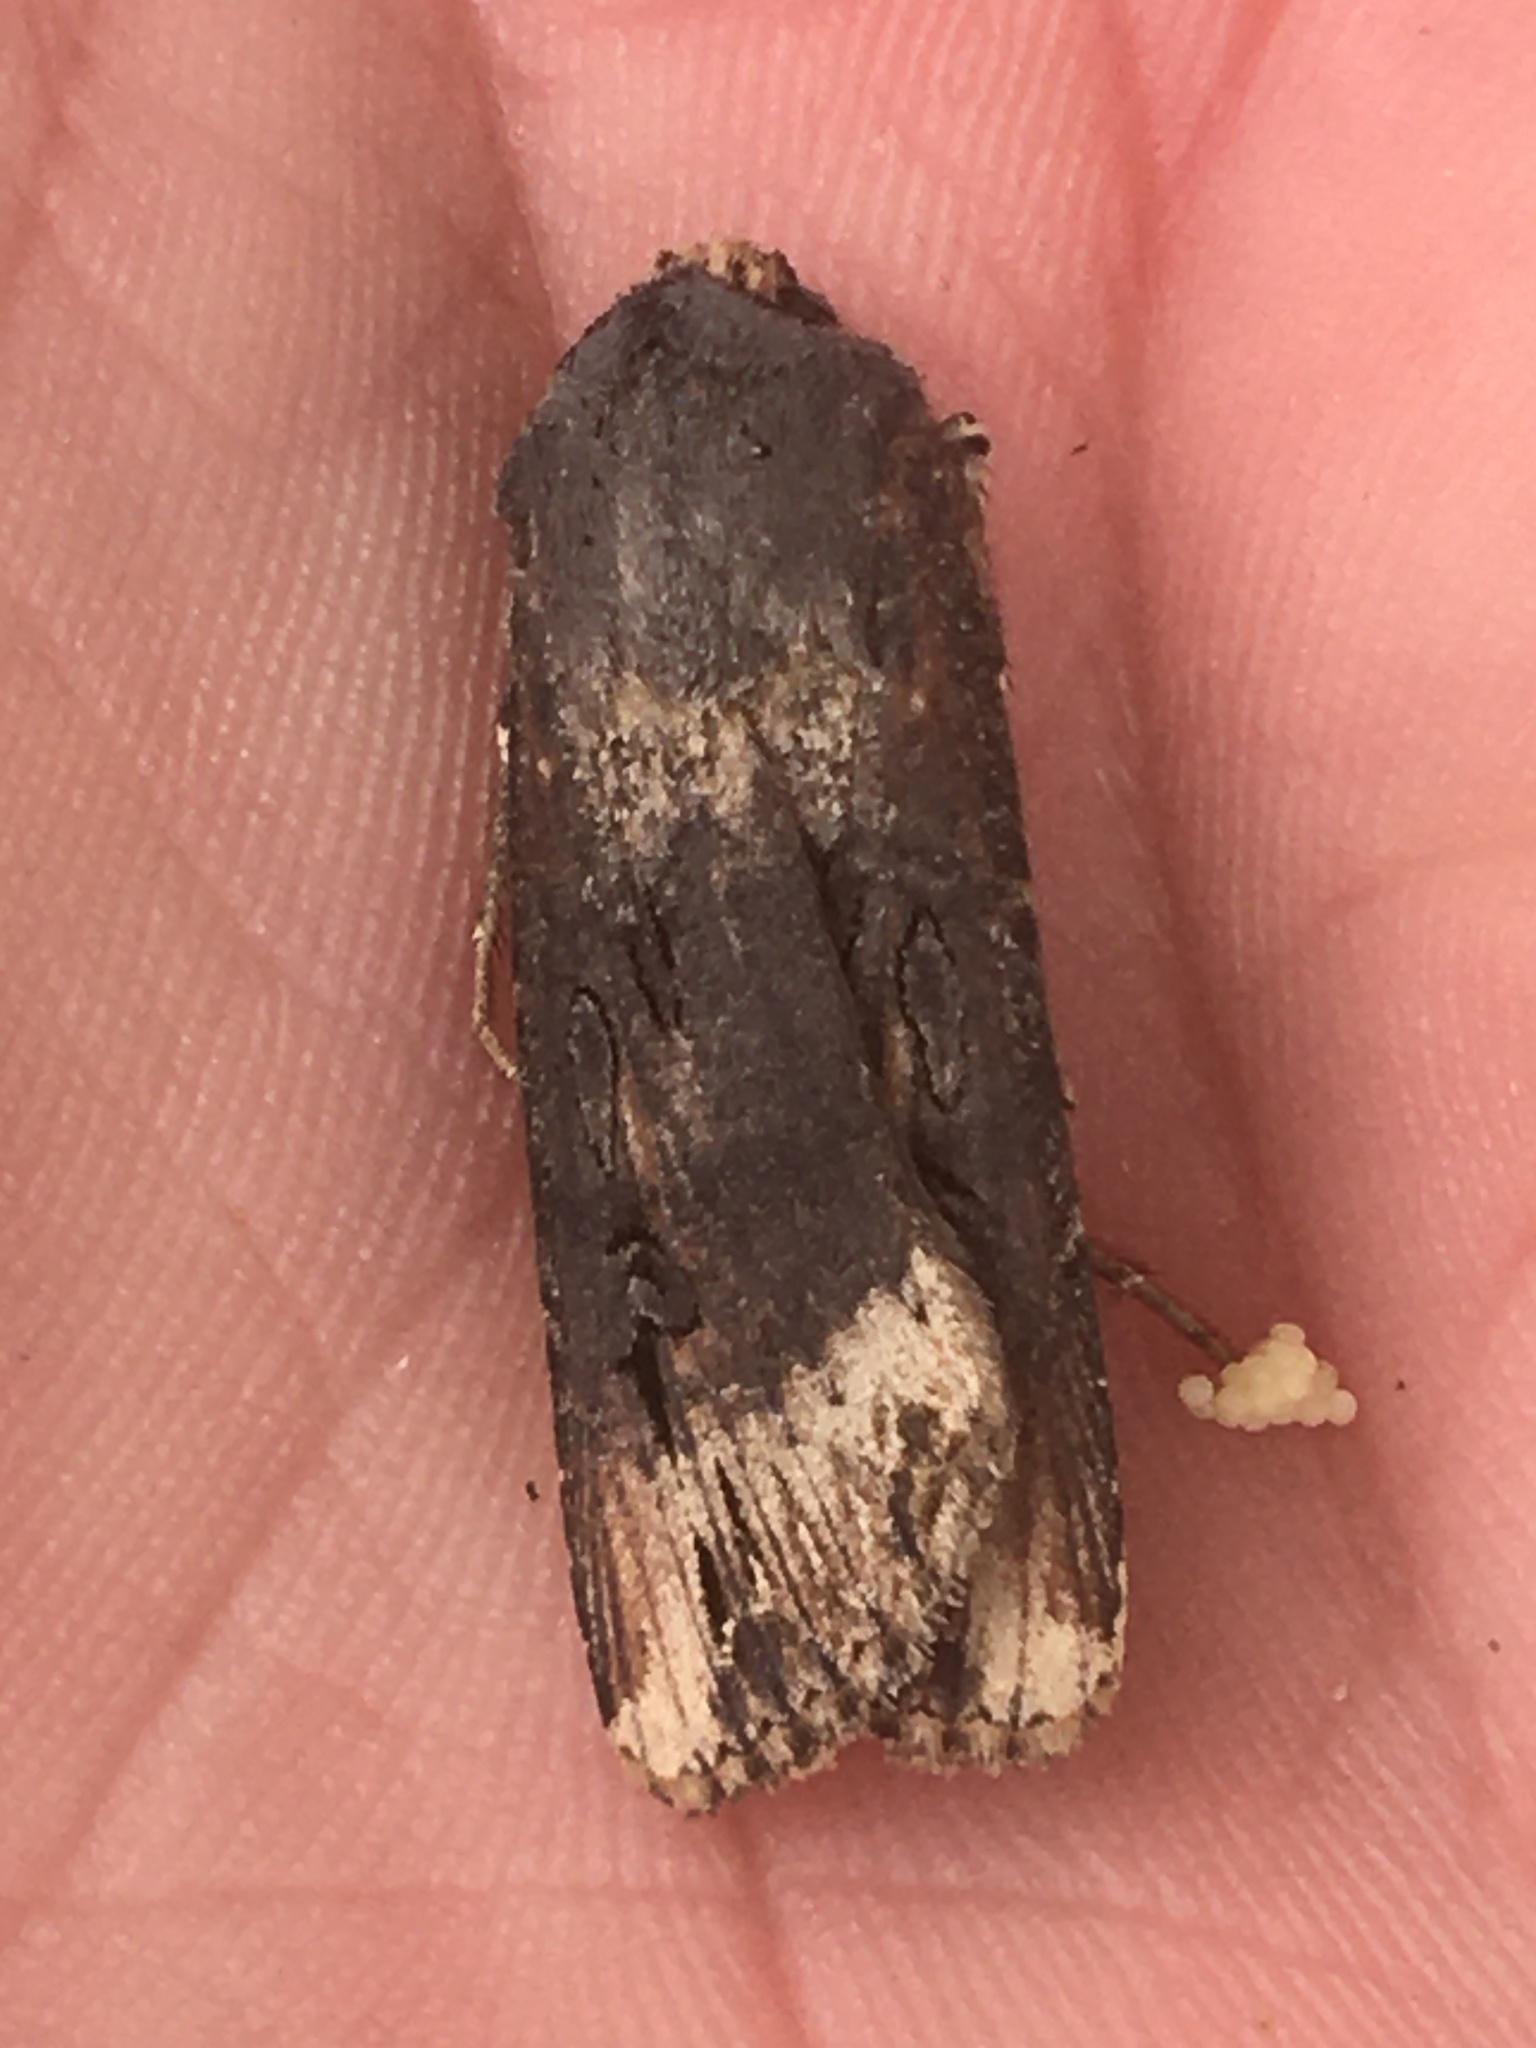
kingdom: Animalia
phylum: Arthropoda
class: Insecta
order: Lepidoptera
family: Noctuidae
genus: Agrotis
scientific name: Agrotis ipsilon
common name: Dark sword-grass
